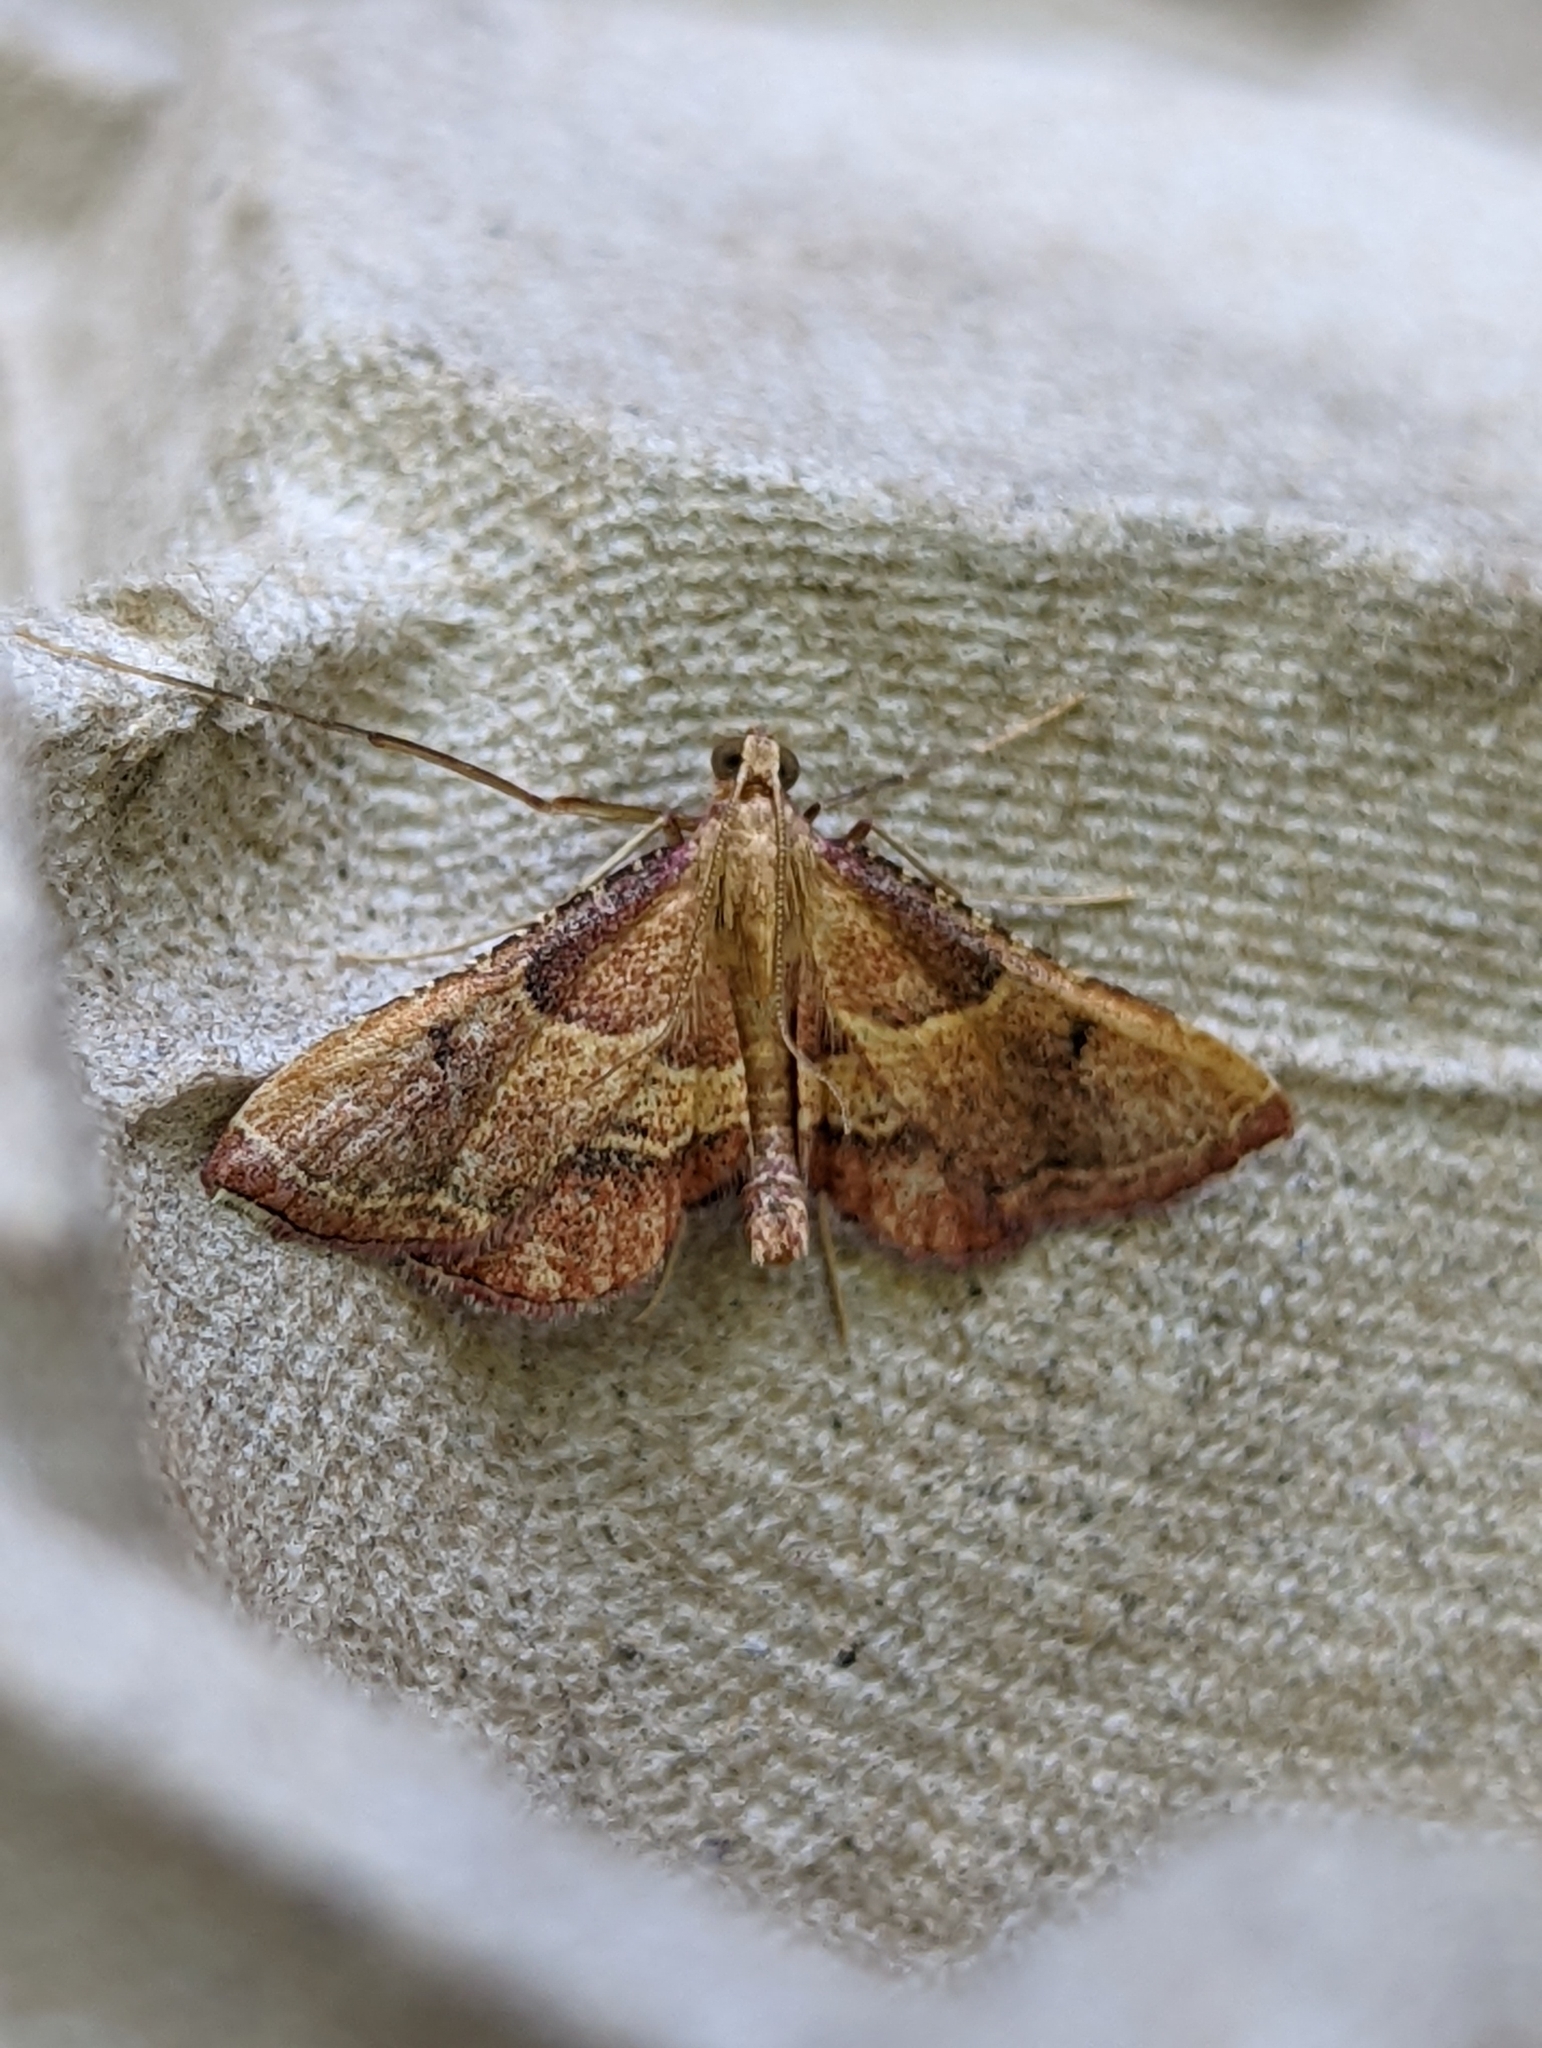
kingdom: Animalia
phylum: Arthropoda
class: Insecta
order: Lepidoptera
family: Pyralidae
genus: Endotricha
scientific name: Endotricha flammealis
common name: Rosy tabby
